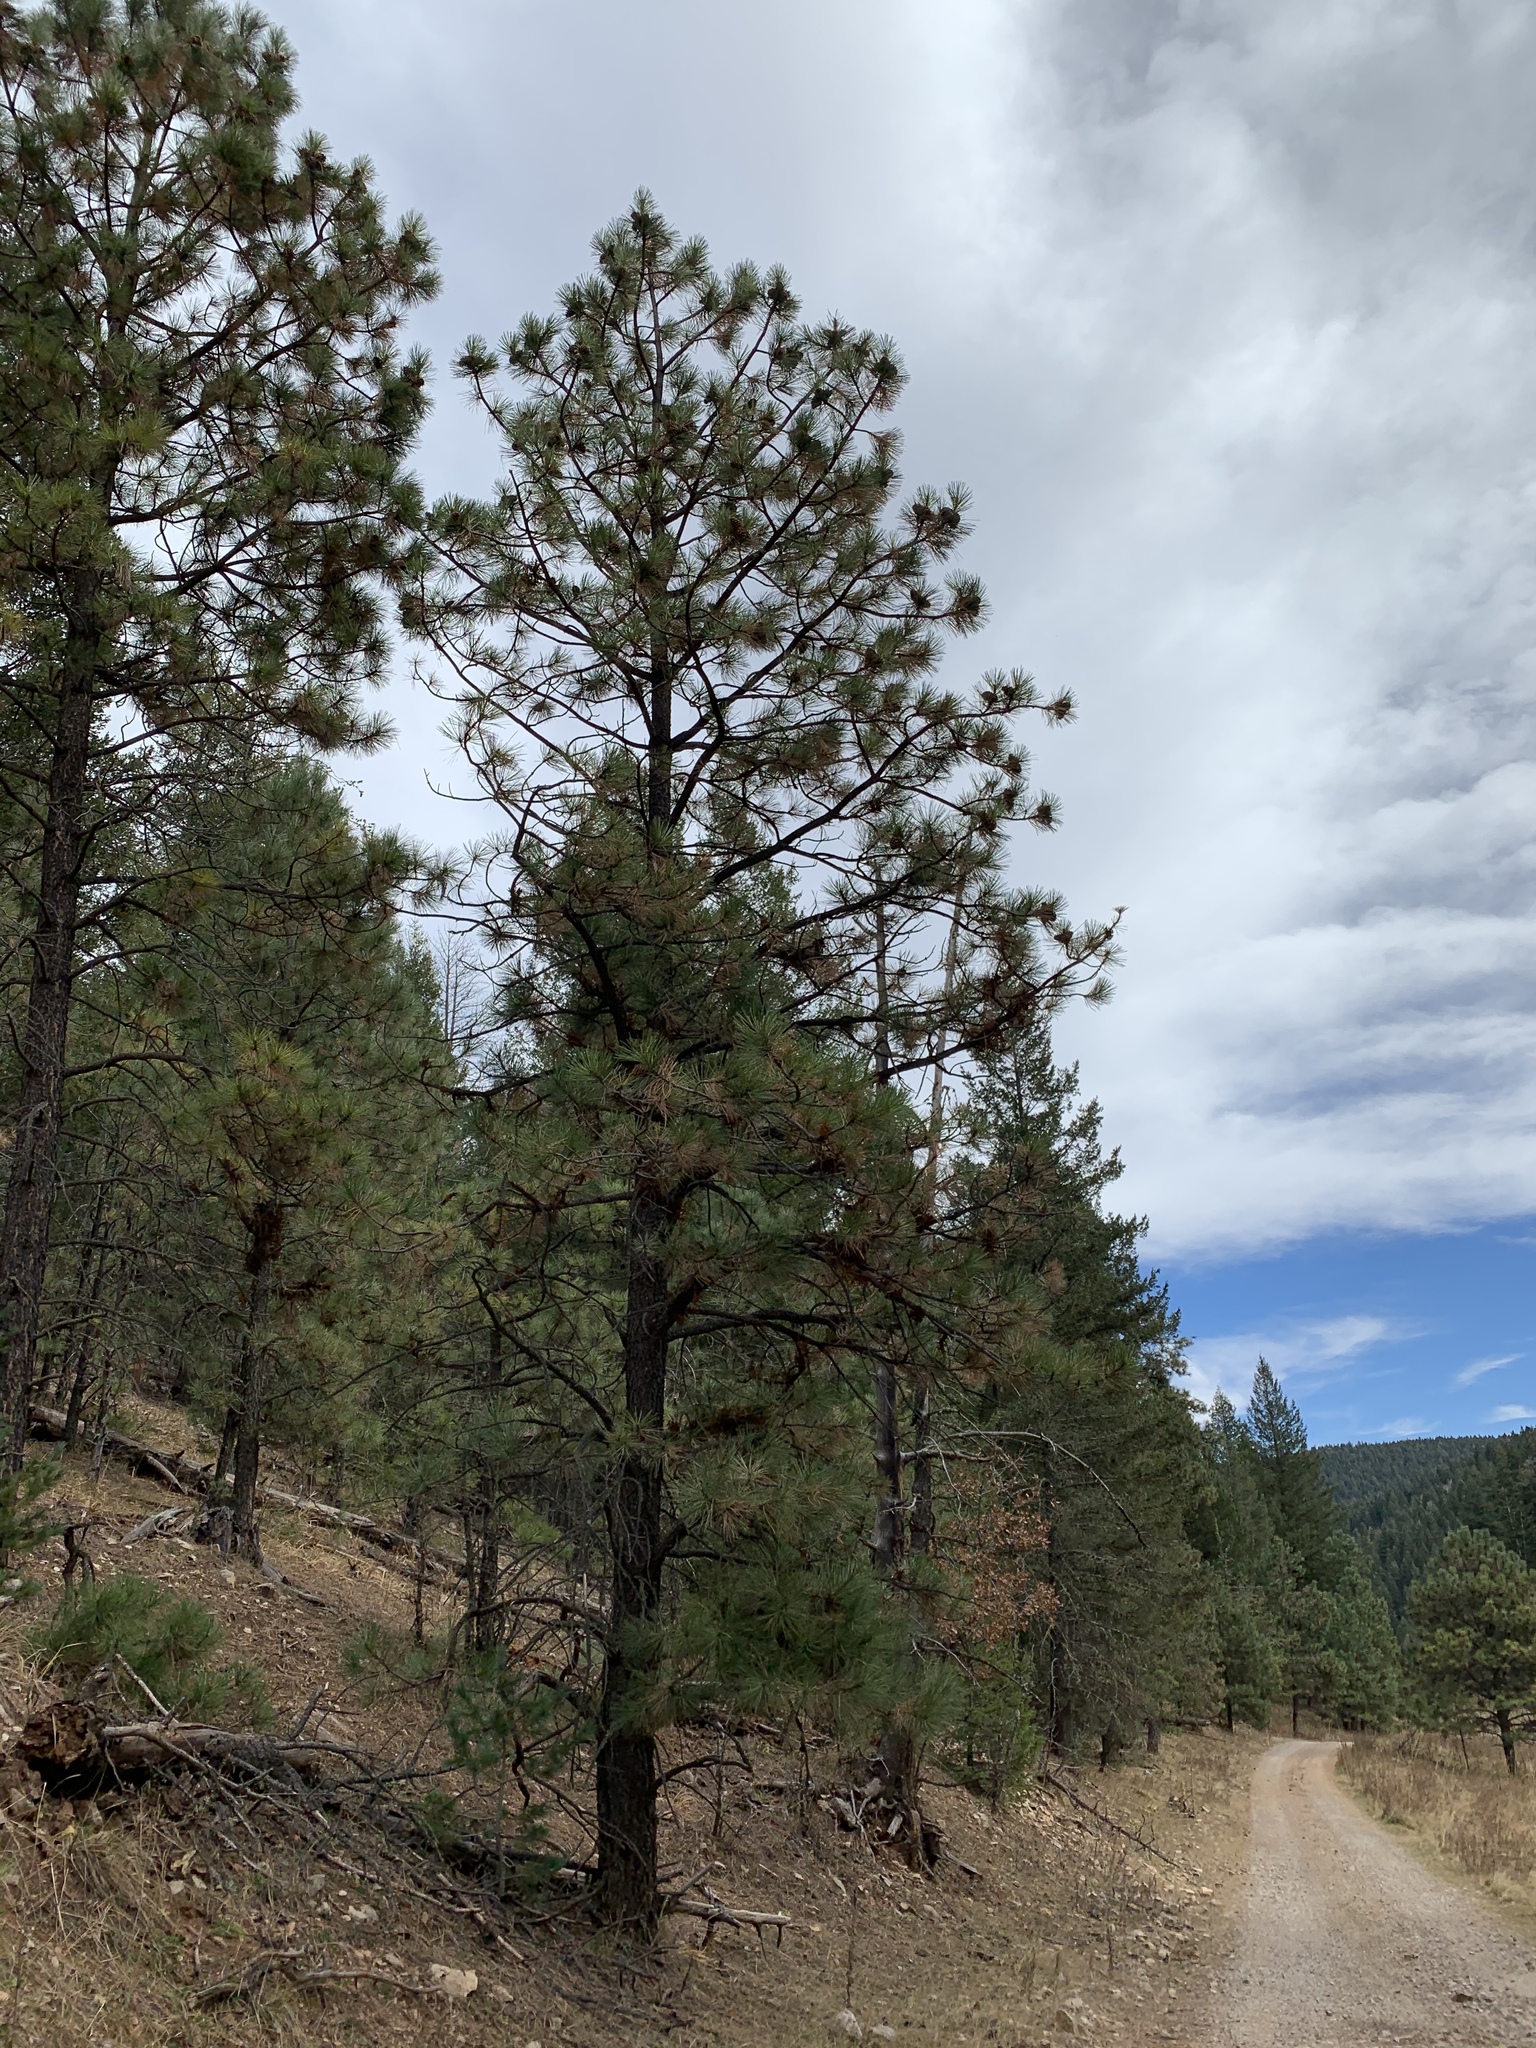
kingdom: Plantae
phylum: Tracheophyta
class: Pinopsida
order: Pinales
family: Pinaceae
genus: Pinus
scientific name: Pinus ponderosa
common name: Western yellow-pine
